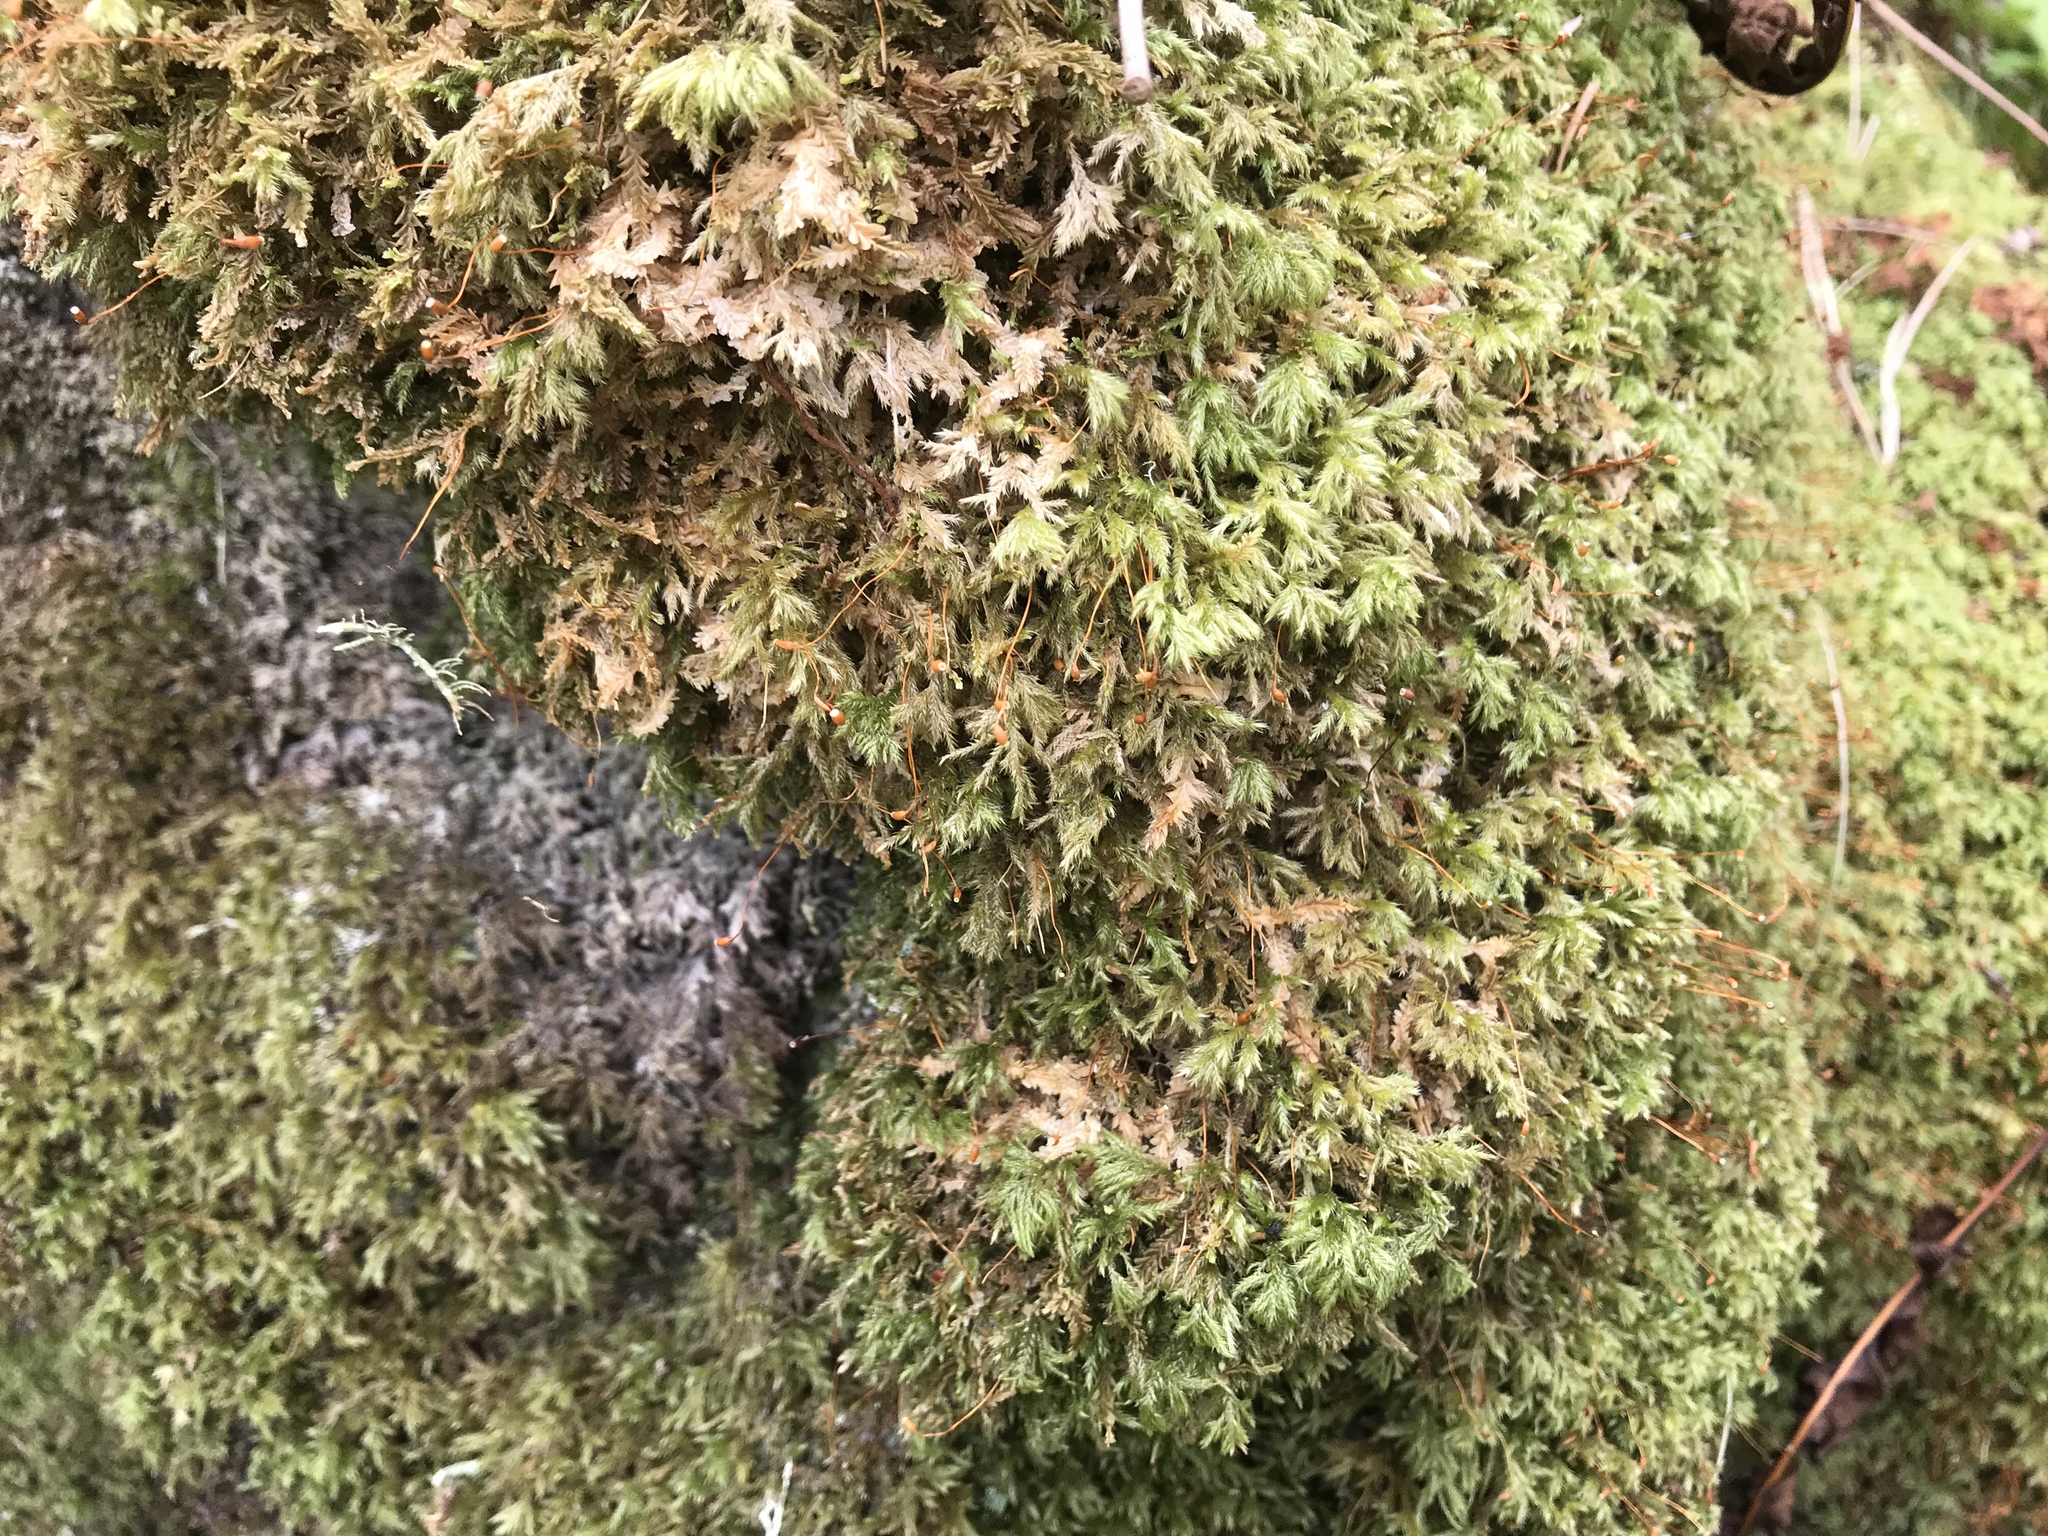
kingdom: Plantae
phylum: Bryophyta
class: Bryopsida
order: Hypnales
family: Lembophyllaceae
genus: Pseudisothecium
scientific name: Pseudisothecium myosuroides
